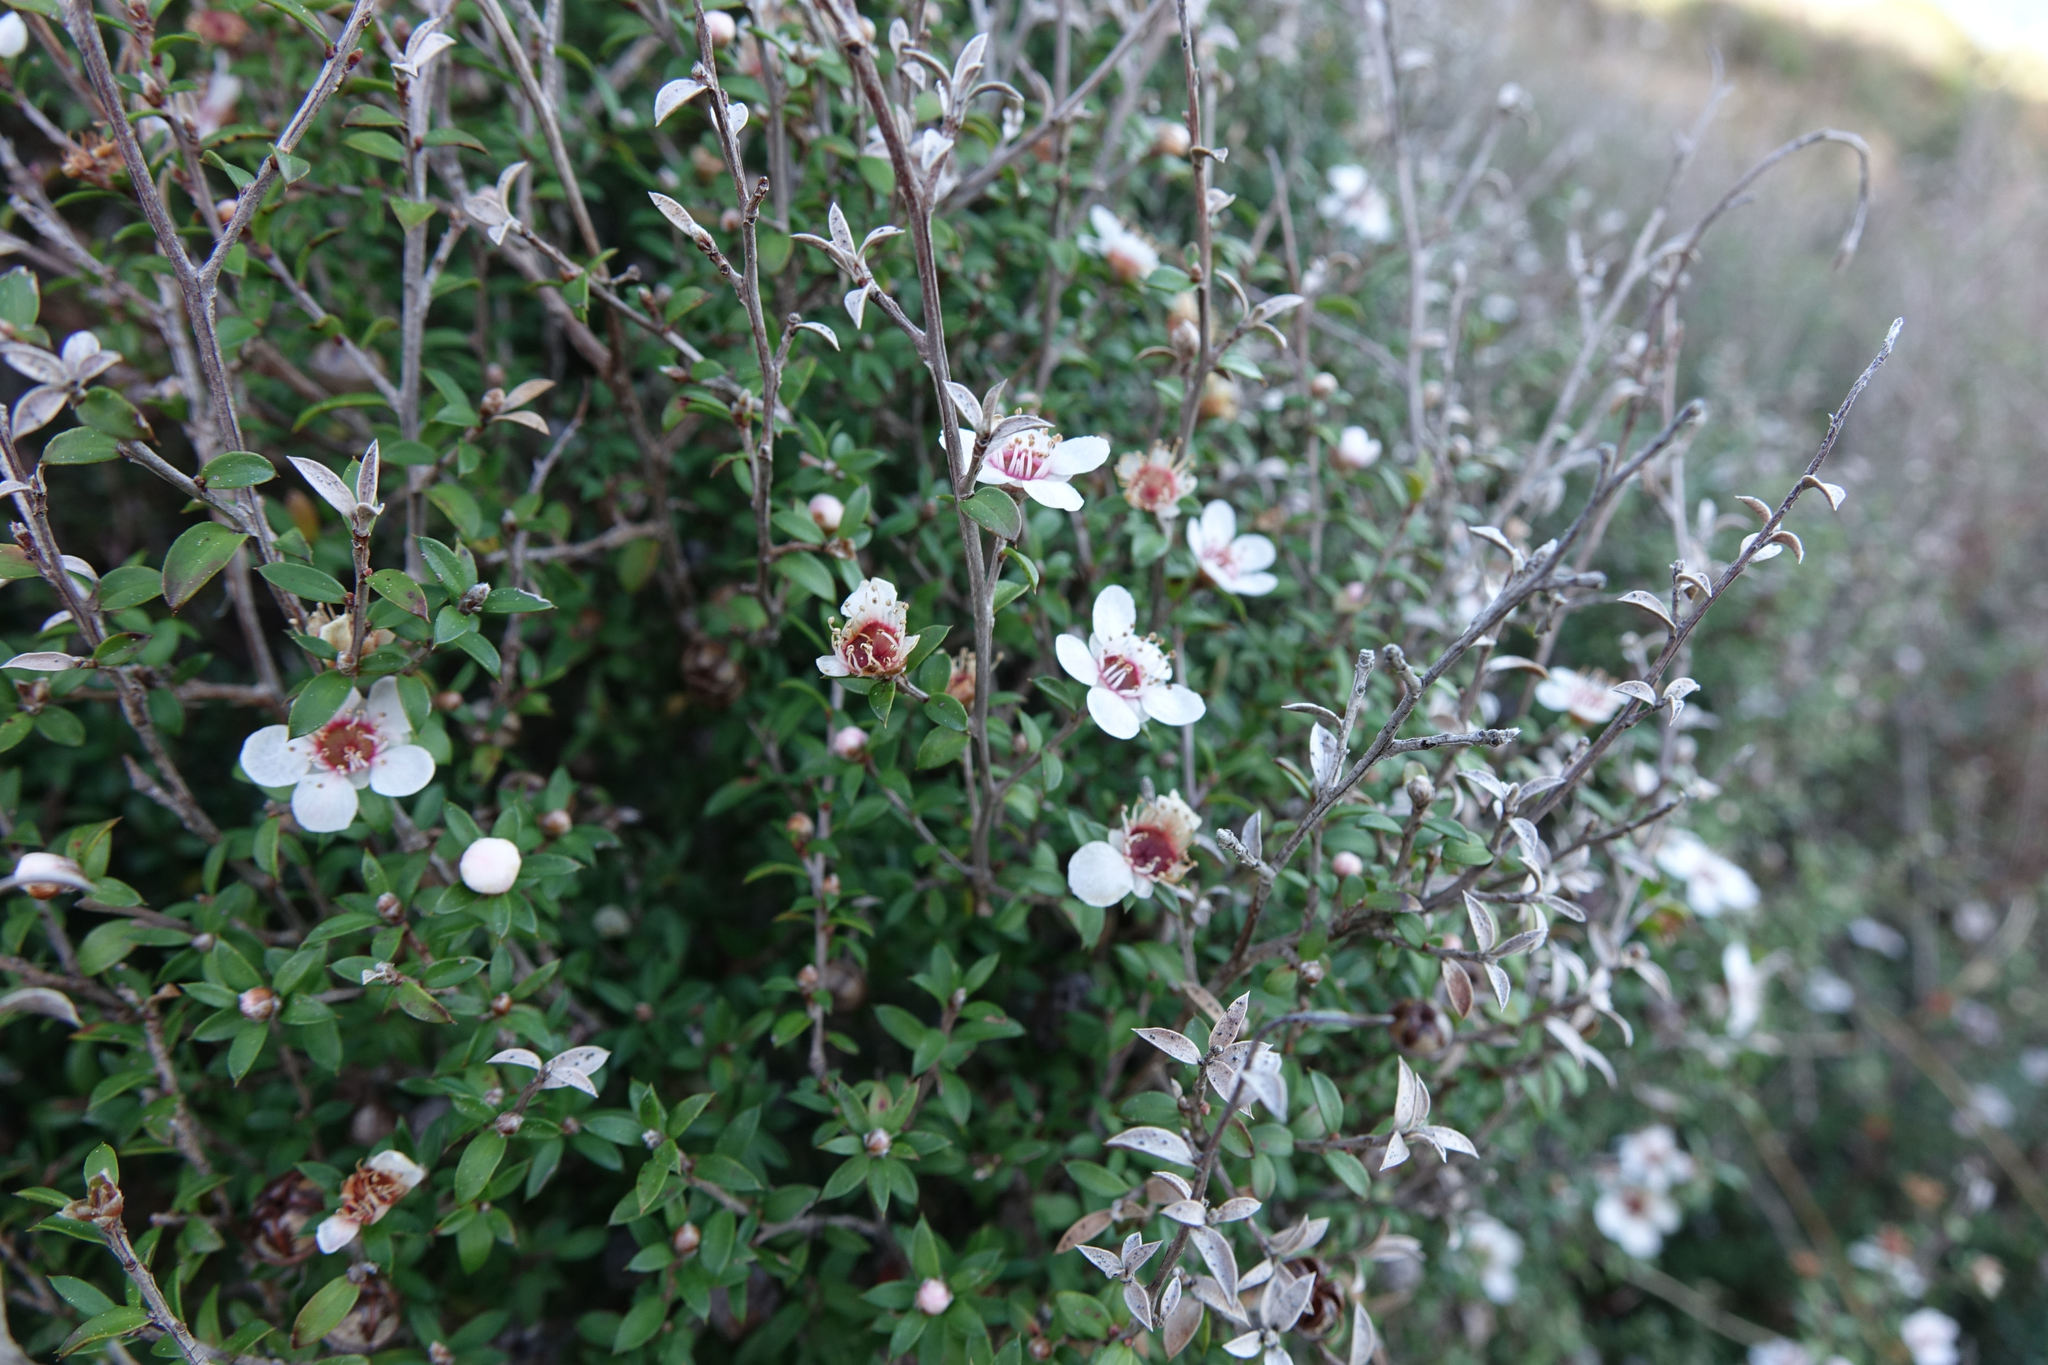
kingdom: Plantae
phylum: Tracheophyta
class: Magnoliopsida
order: Myrtales
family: Myrtaceae
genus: Leptospermum
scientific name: Leptospermum scoparium
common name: Broom tea-tree
